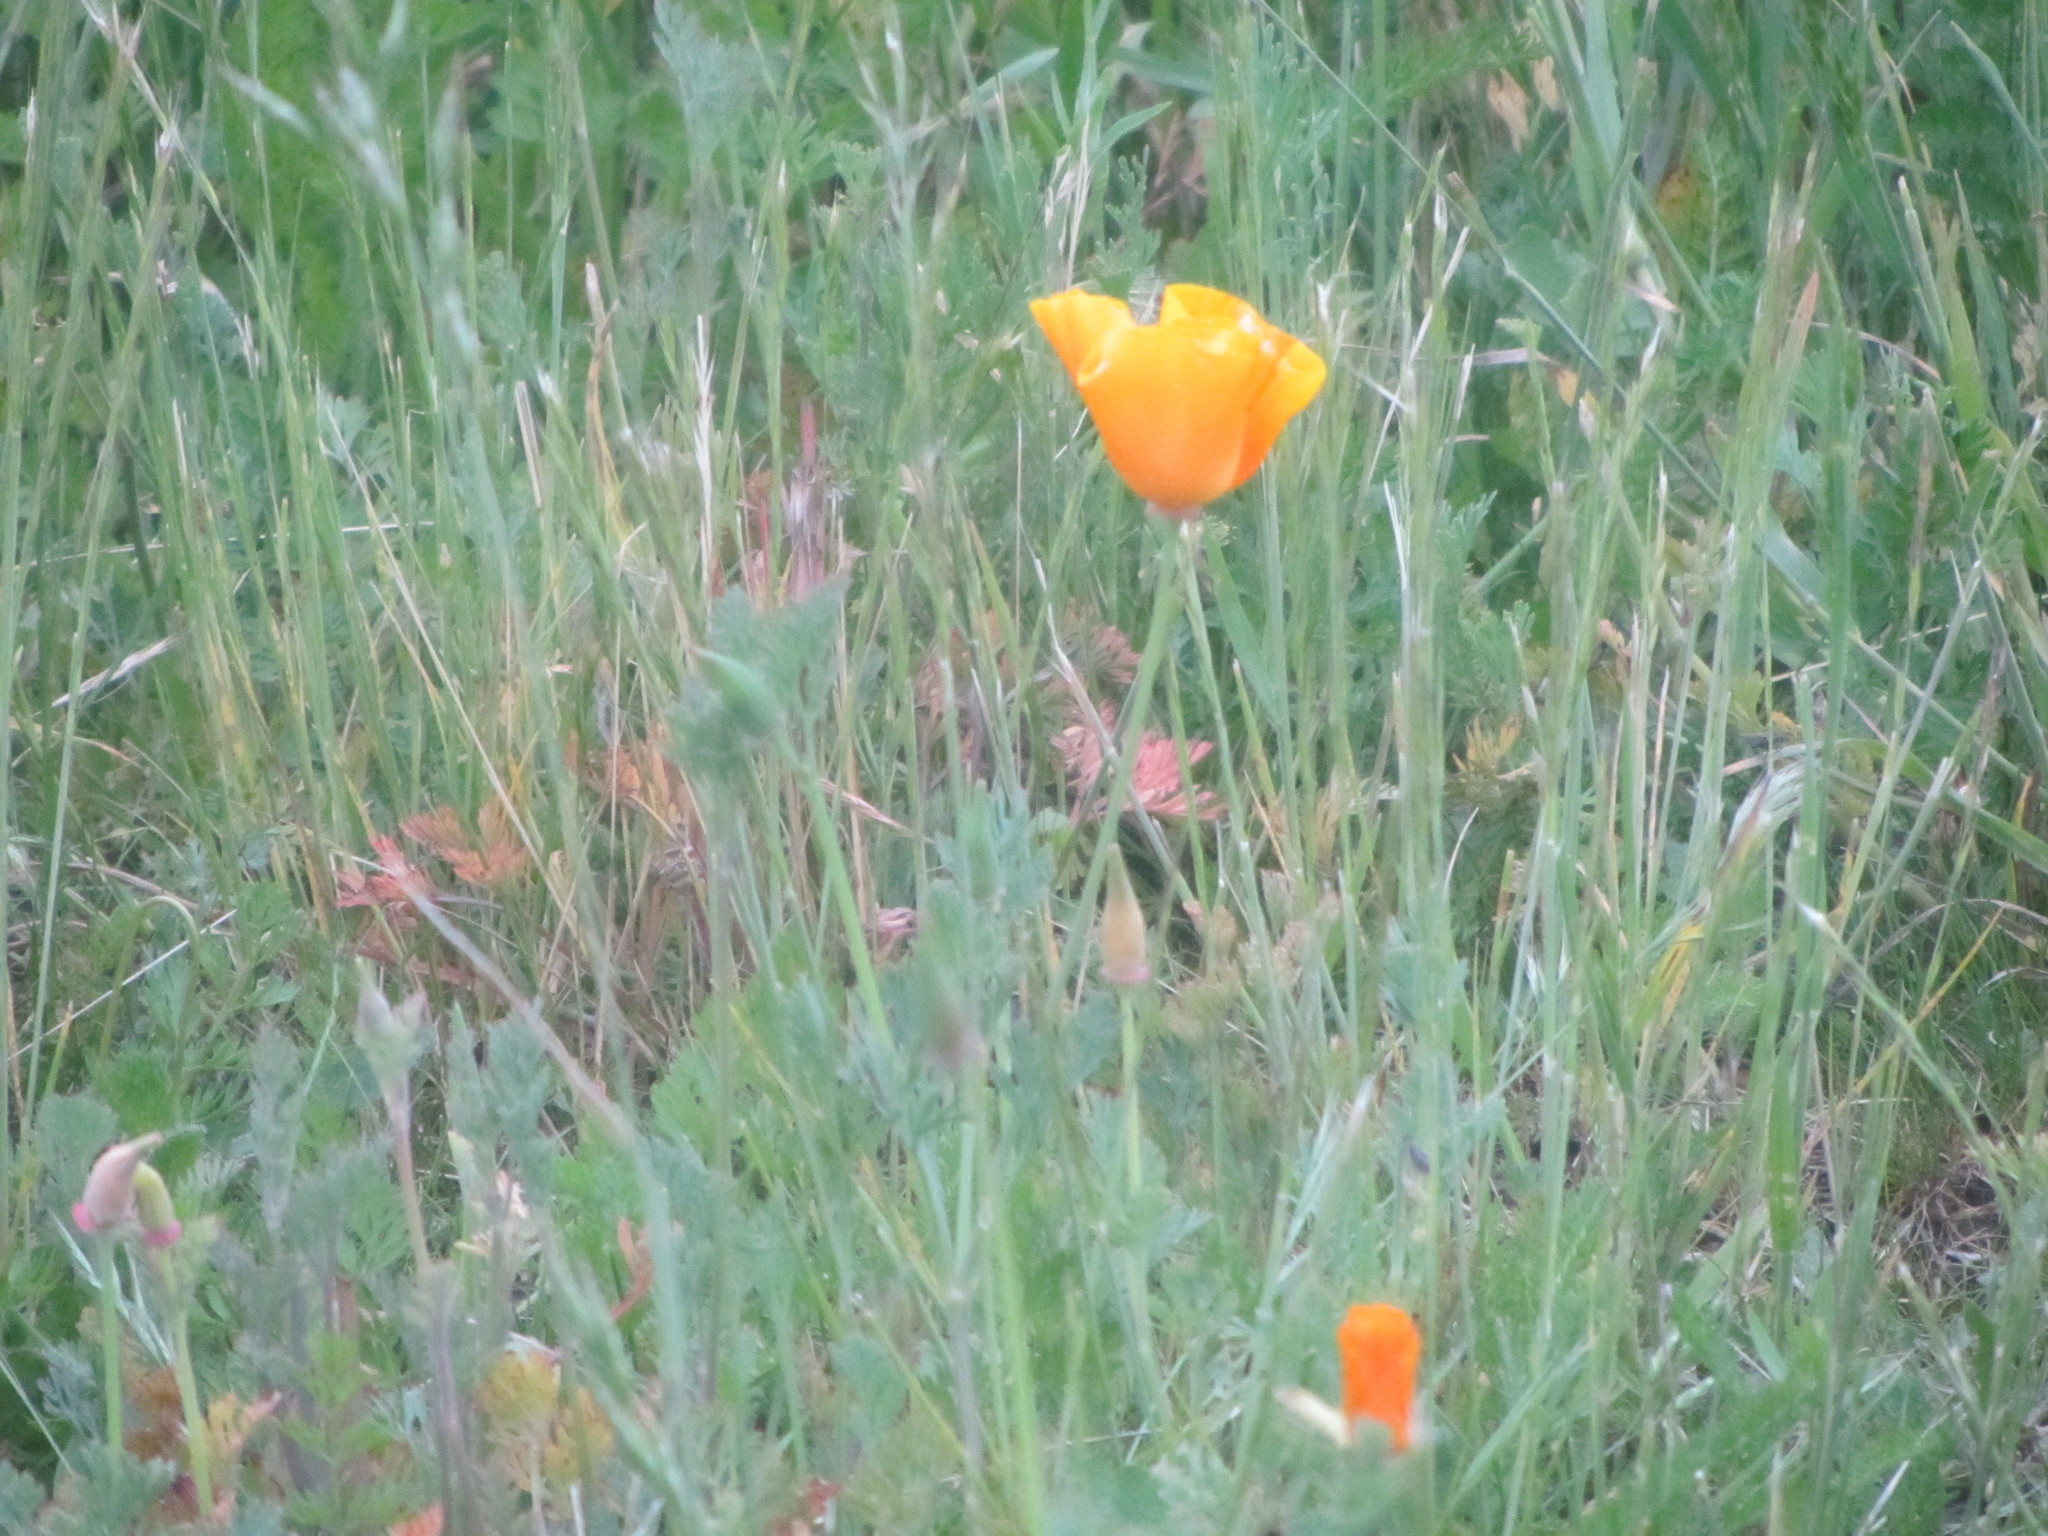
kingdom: Plantae
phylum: Tracheophyta
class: Magnoliopsida
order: Ranunculales
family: Papaveraceae
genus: Eschscholzia
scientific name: Eschscholzia californica
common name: California poppy
